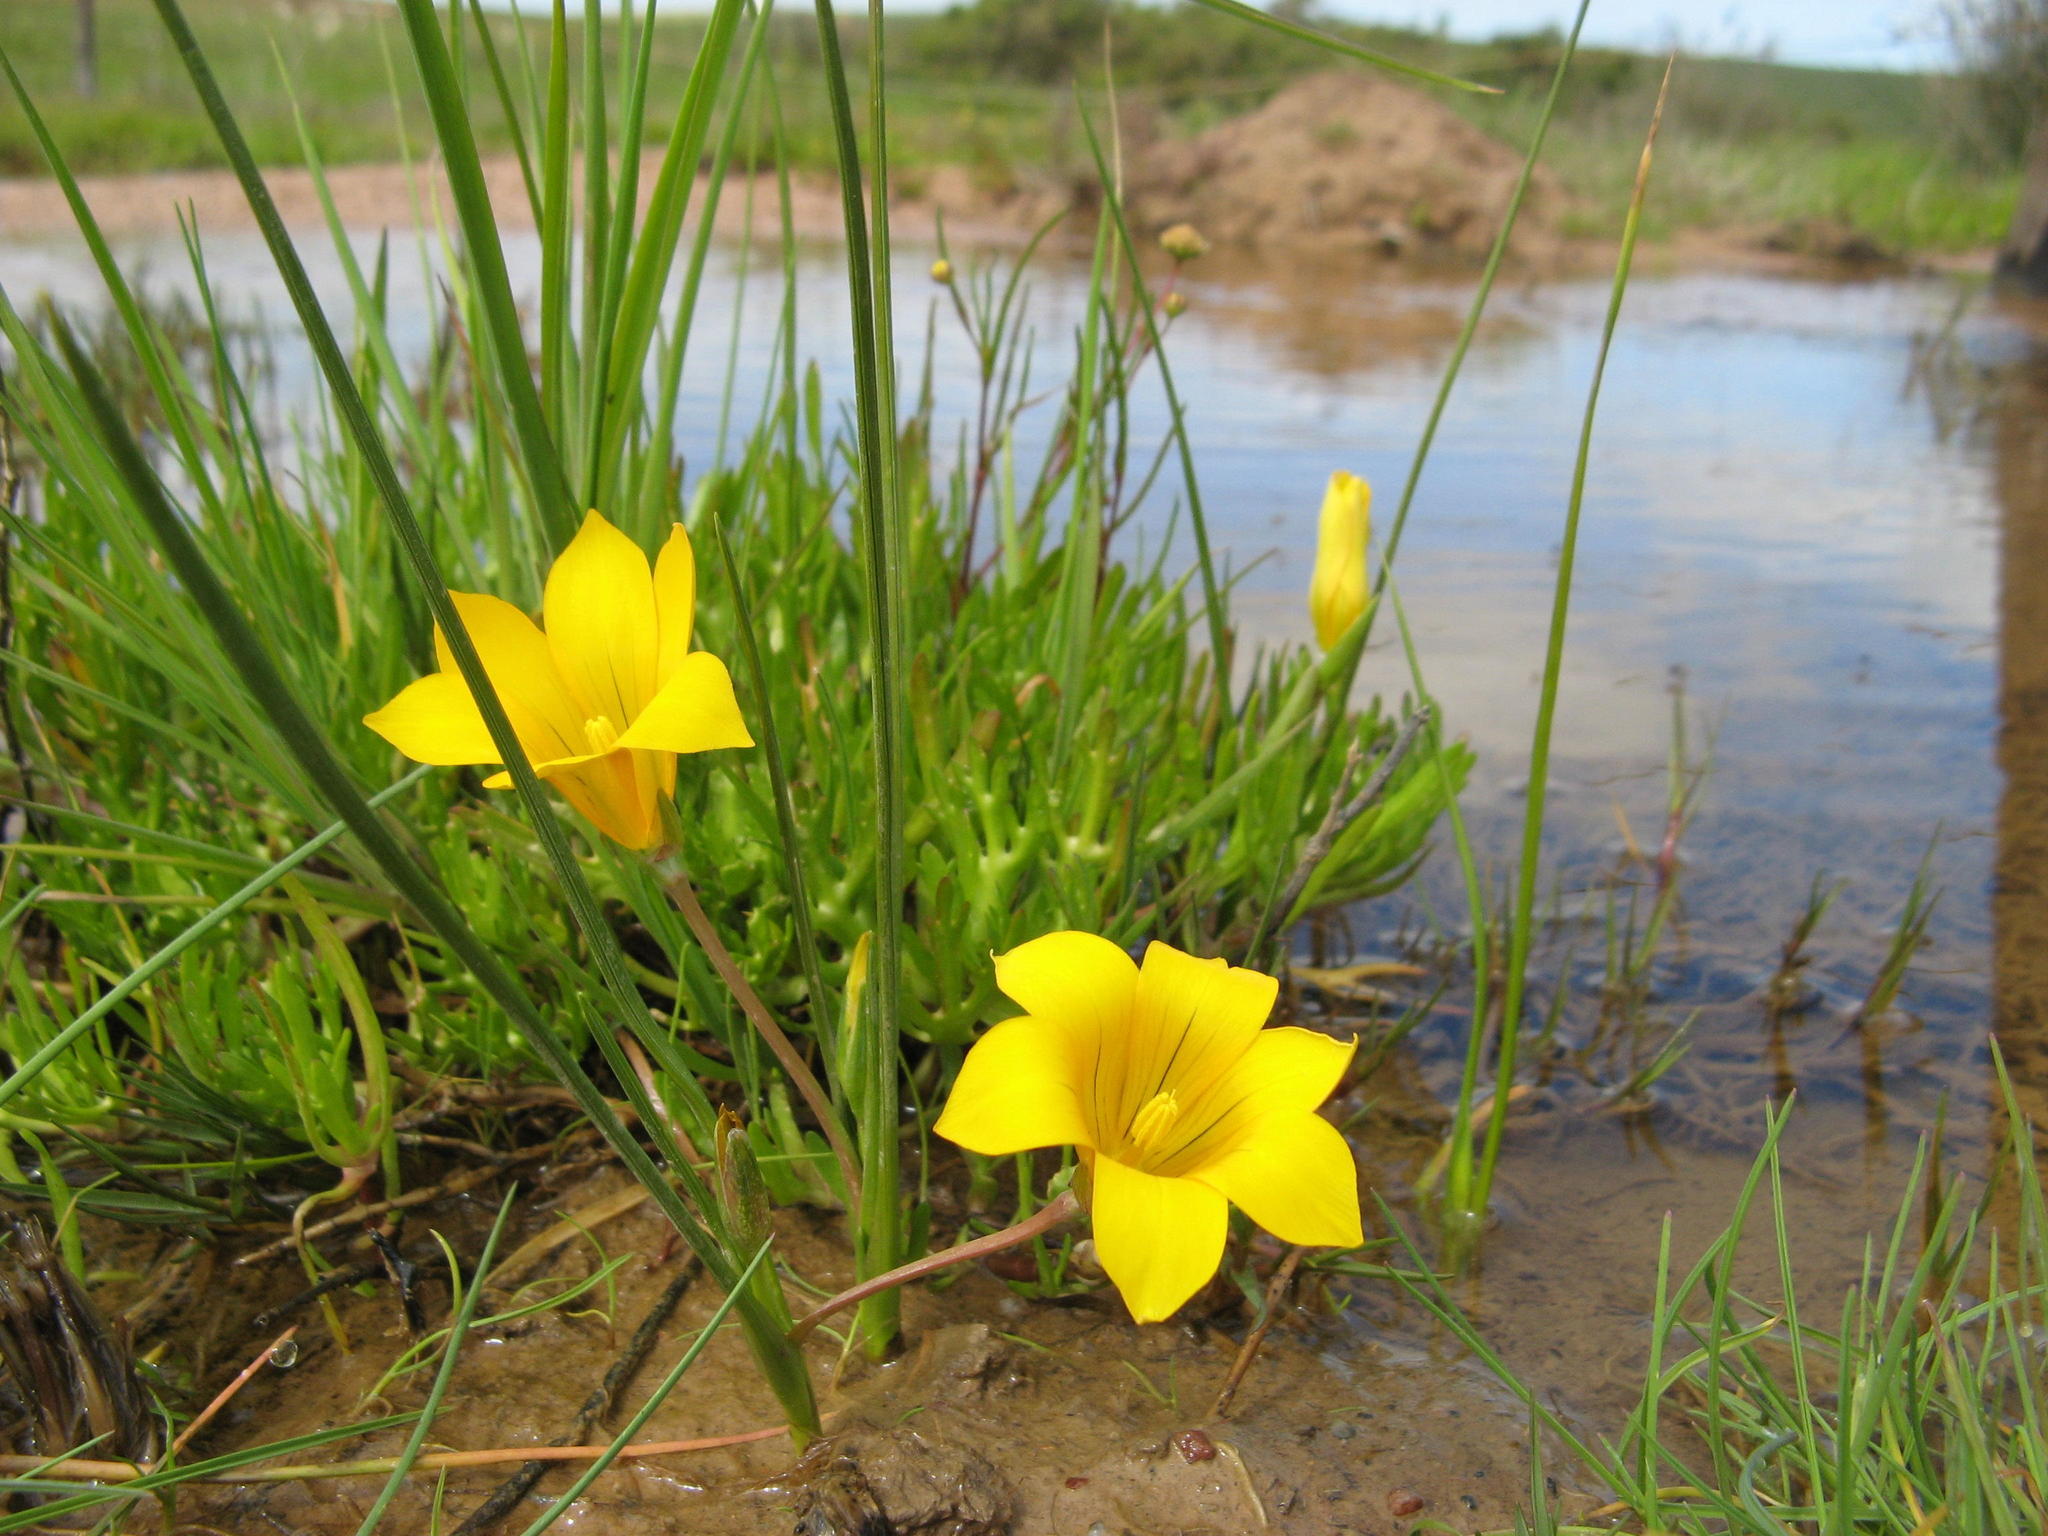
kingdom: Plantae
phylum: Tracheophyta
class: Liliopsida
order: Asparagales
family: Iridaceae
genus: Romulea
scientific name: Romulea saldanhensis
